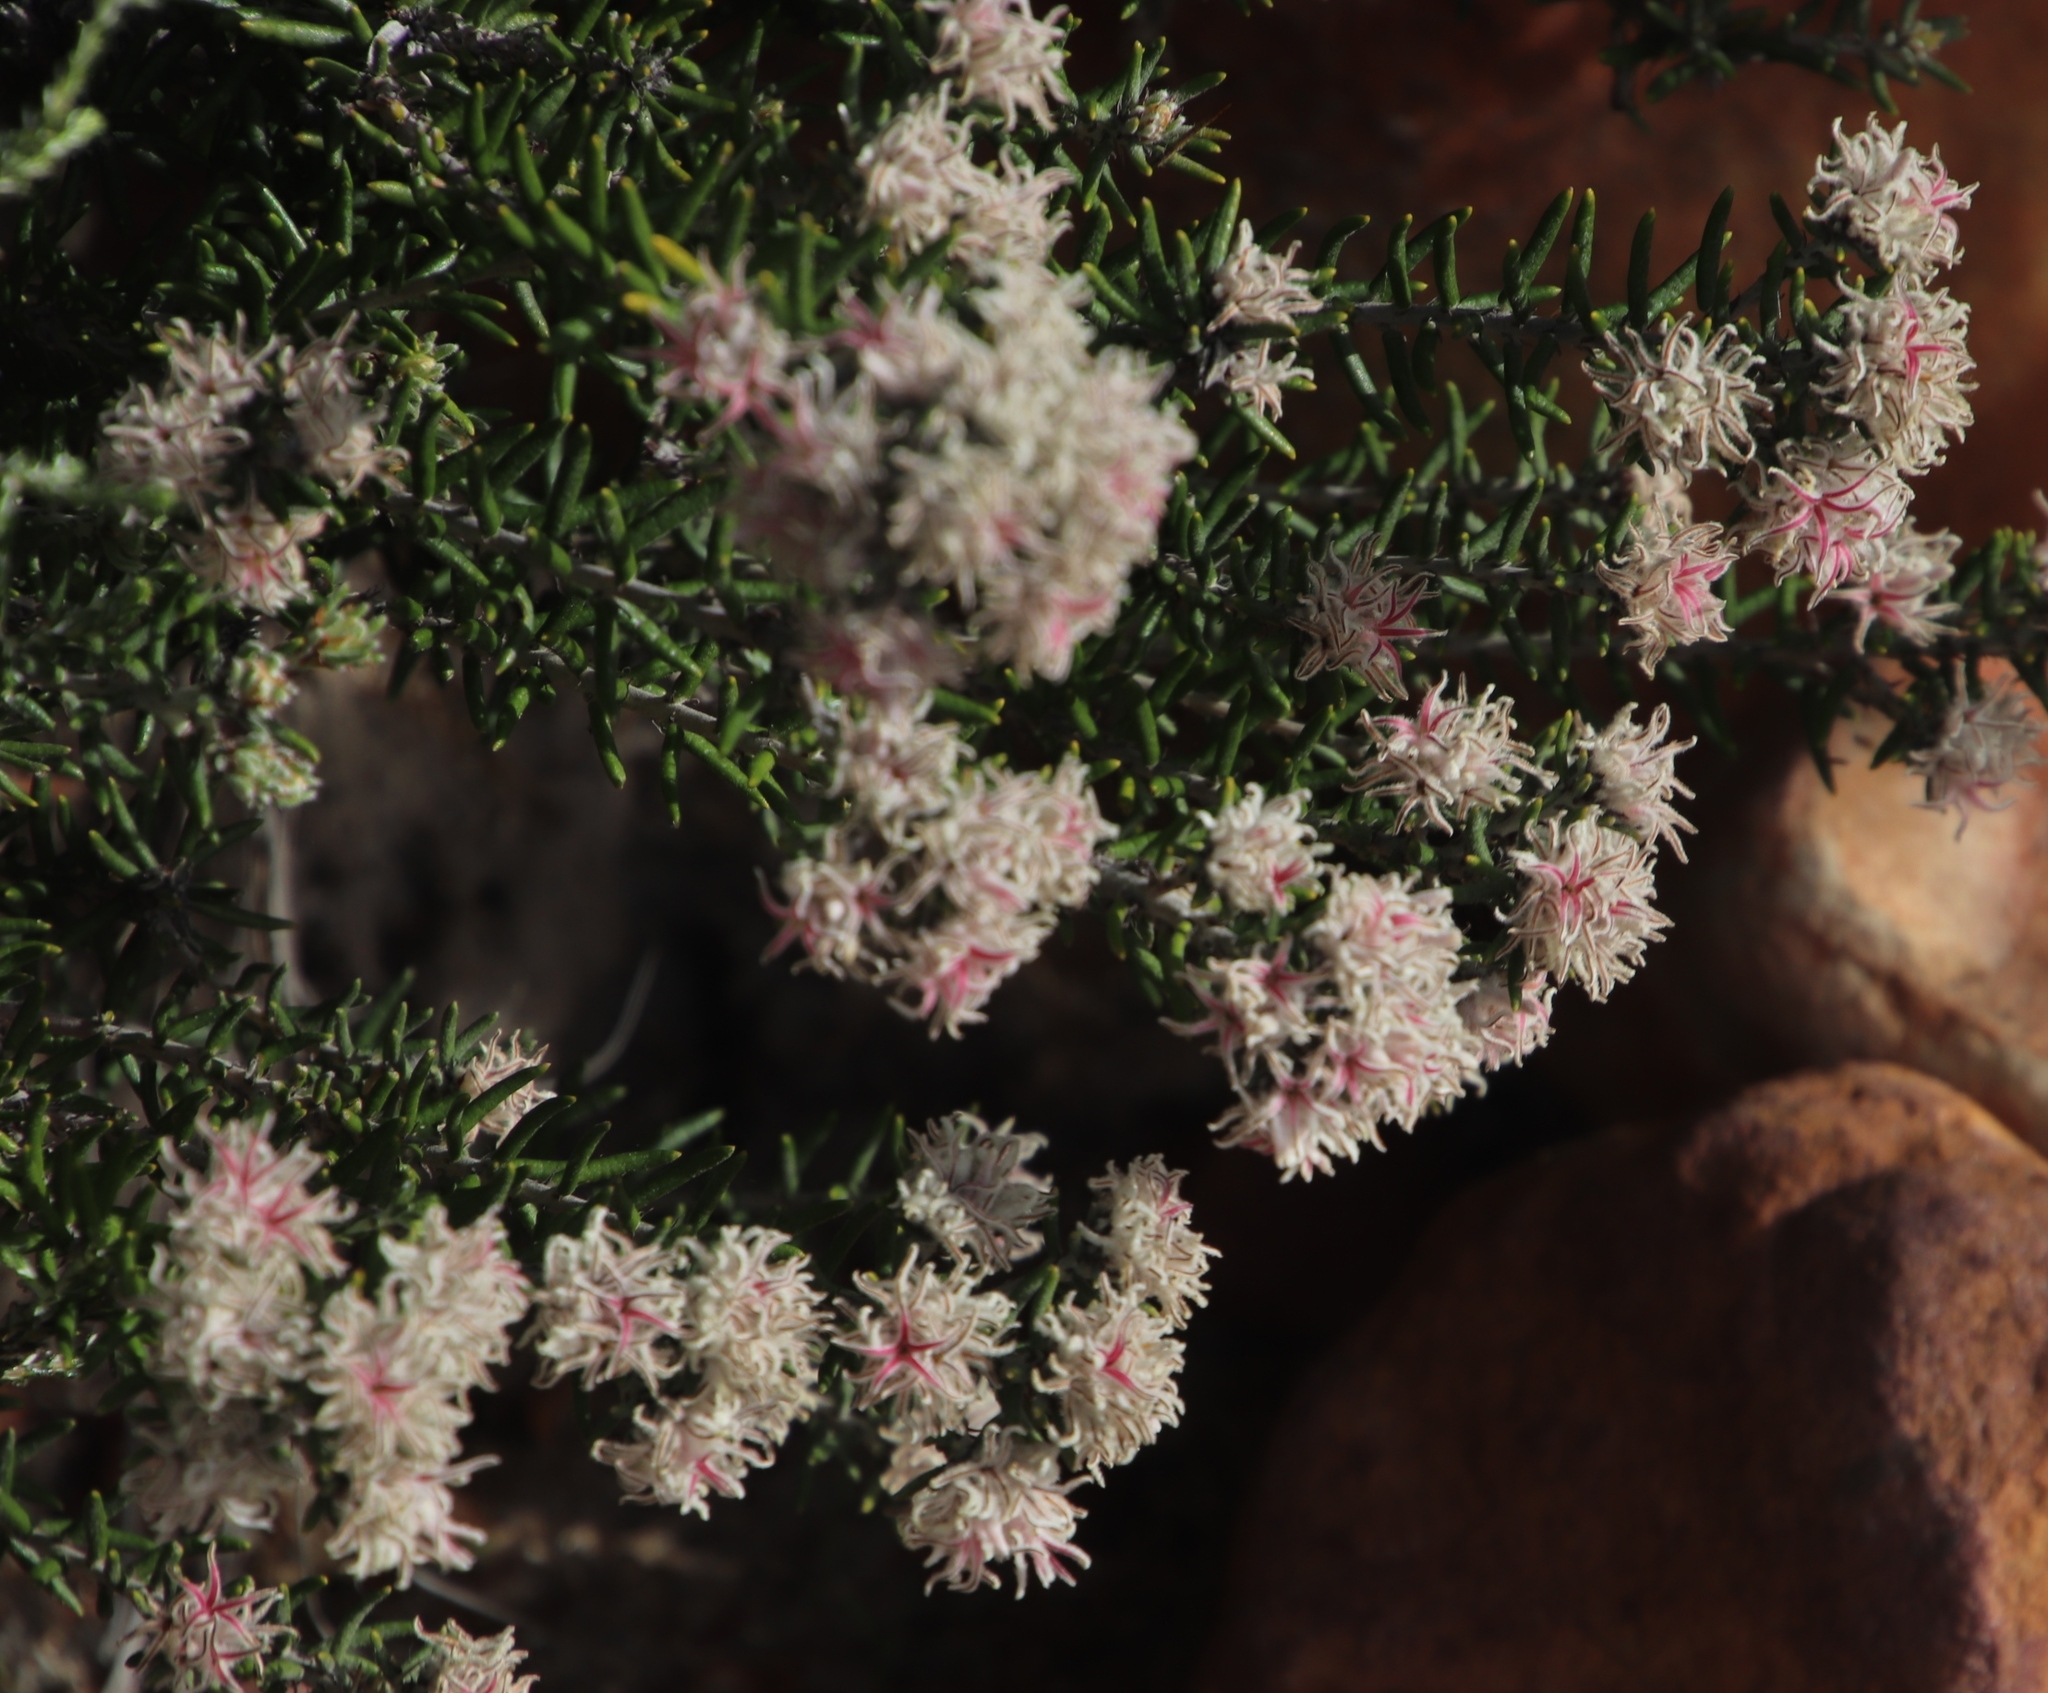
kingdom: Plantae
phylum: Tracheophyta
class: Magnoliopsida
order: Rosales
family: Rhamnaceae
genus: Trichocephalus
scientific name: Trichocephalus stipularis
